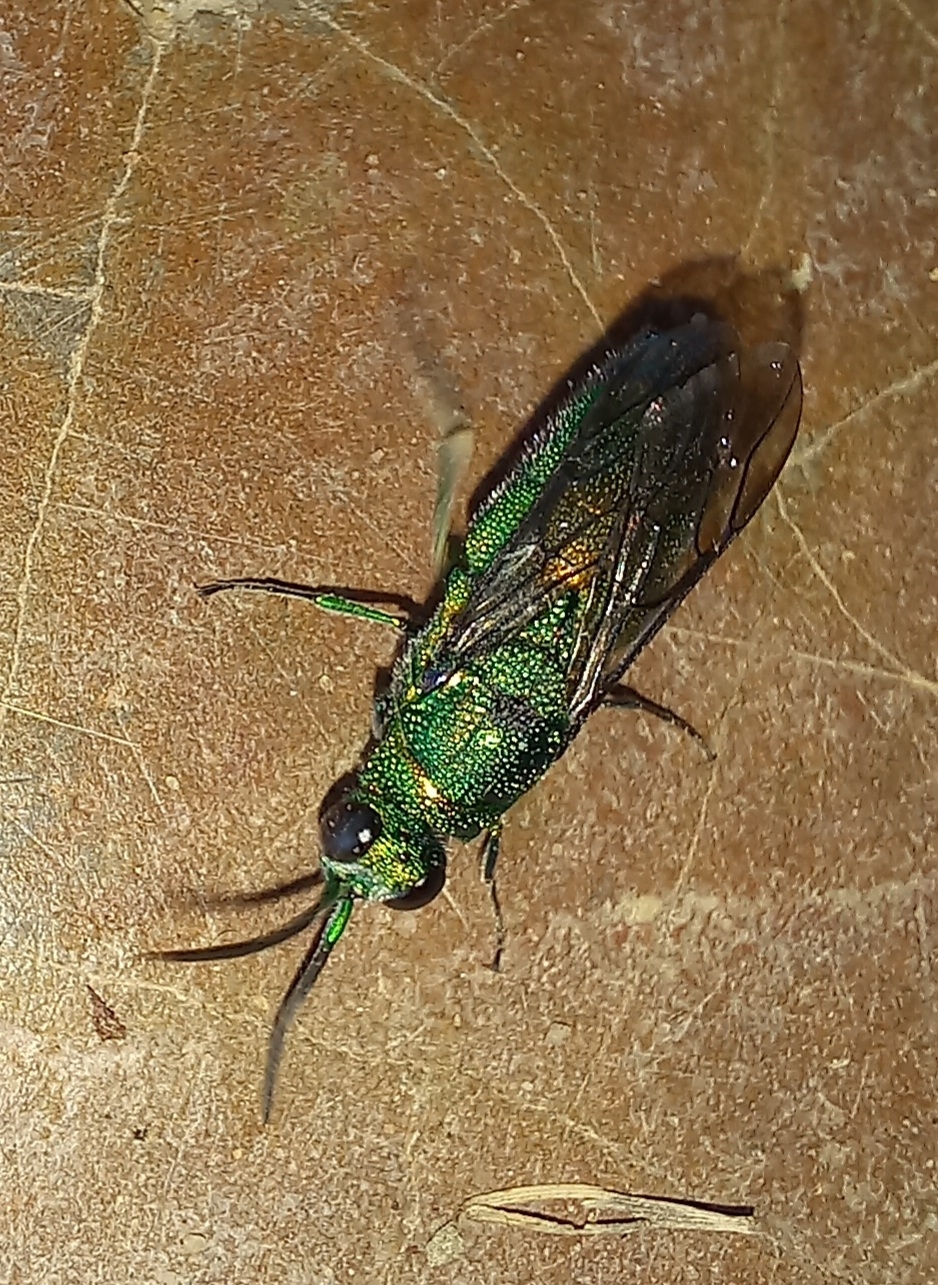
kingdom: Animalia
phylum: Arthropoda
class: Insecta
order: Hymenoptera
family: Chrysididae
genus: Chrysis
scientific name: Chrysis lincea
